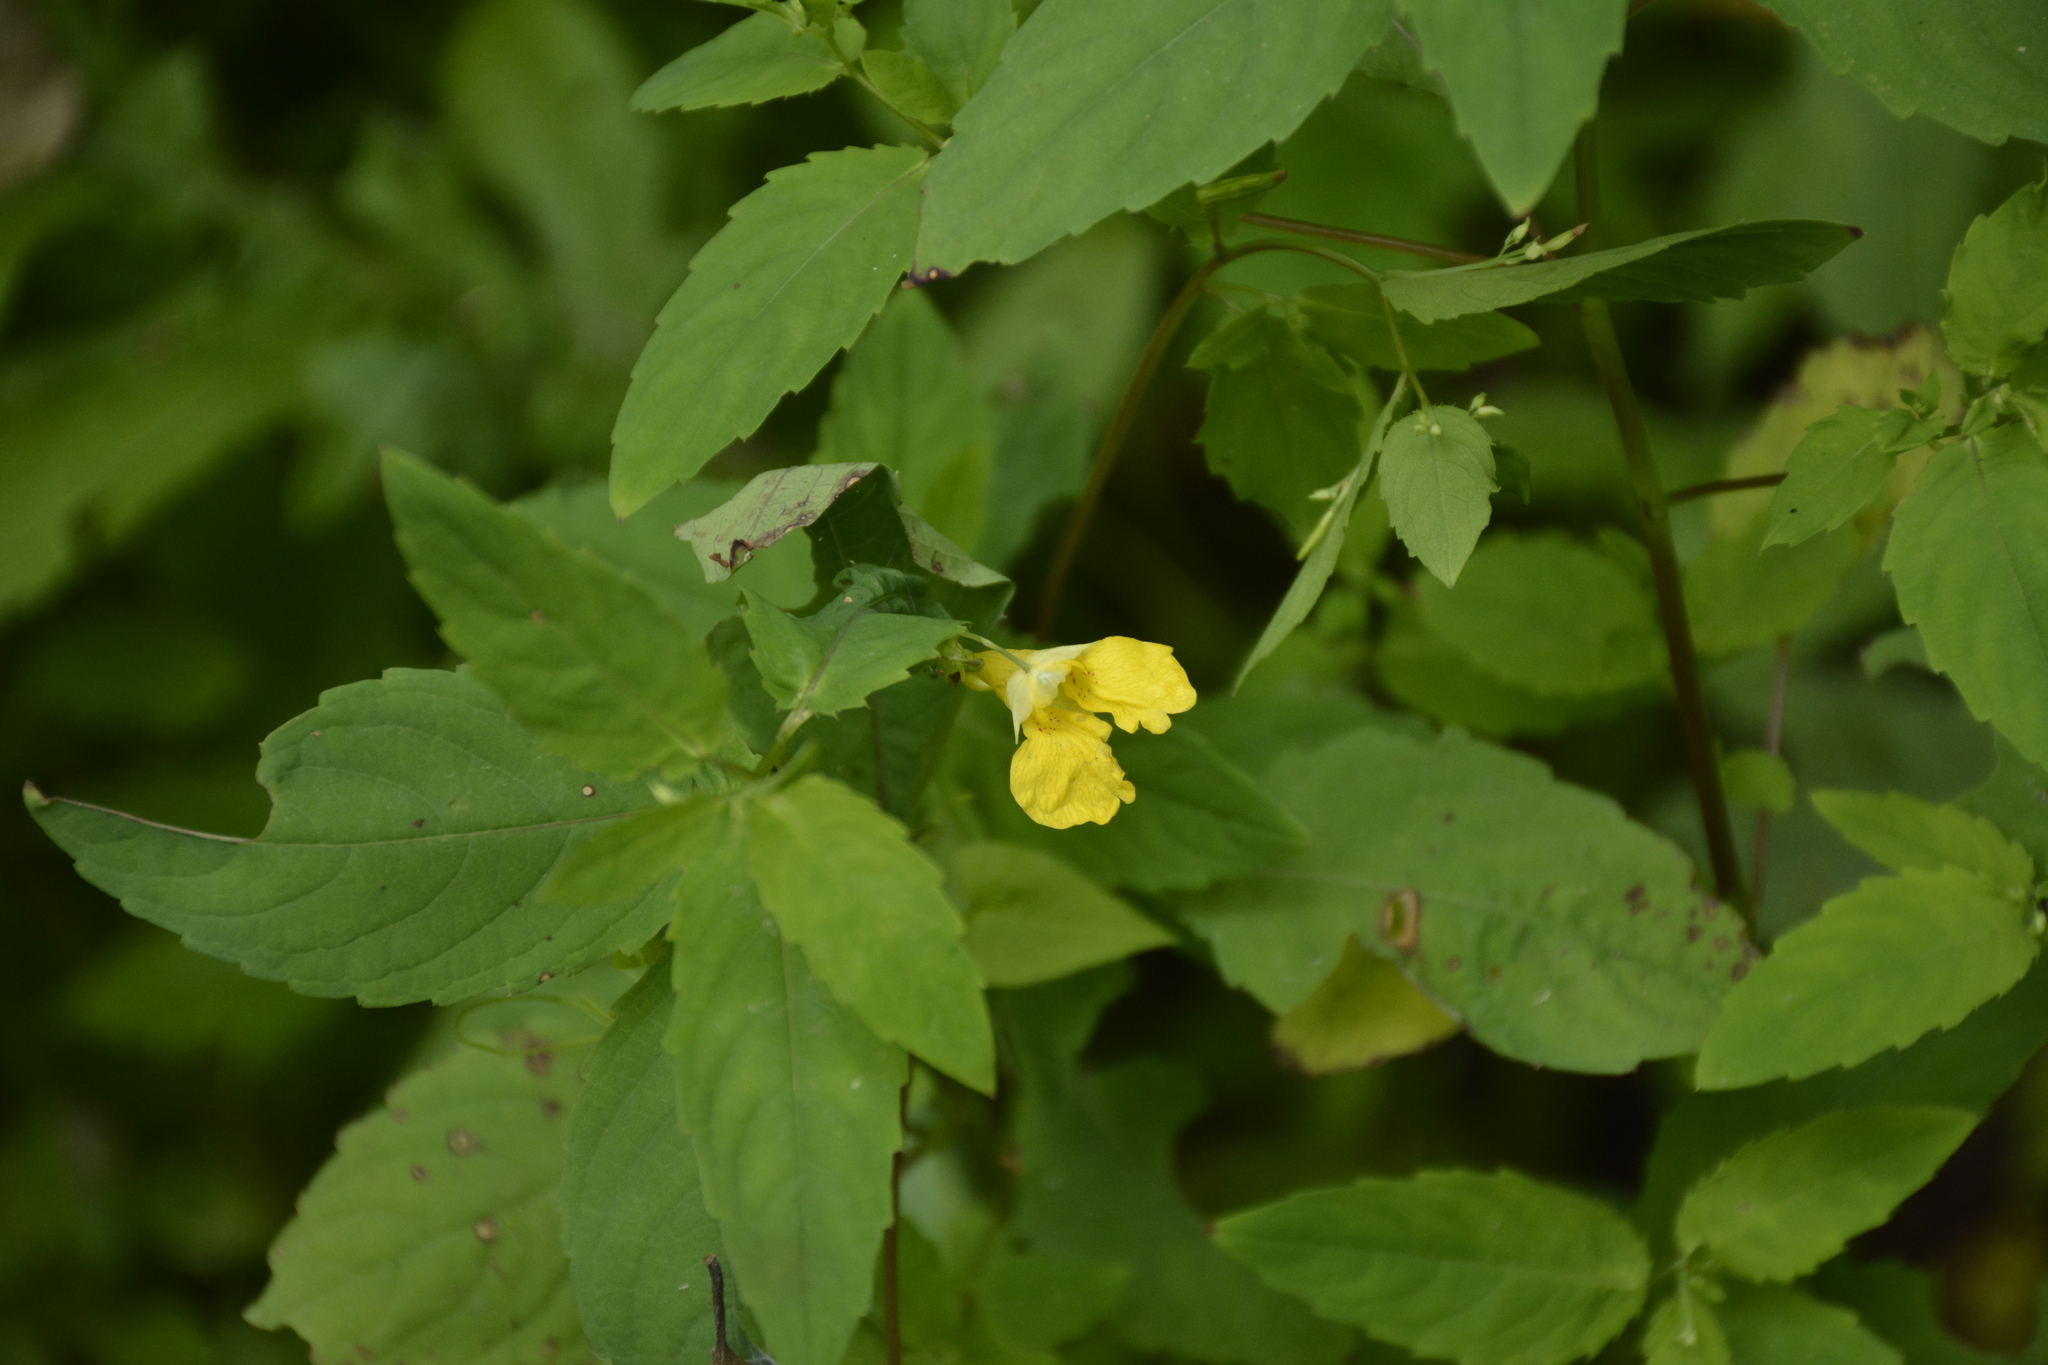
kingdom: Plantae
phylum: Tracheophyta
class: Magnoliopsida
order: Ericales
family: Balsaminaceae
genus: Impatiens
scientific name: Impatiens noli-tangere
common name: Touch-me-not balsam
